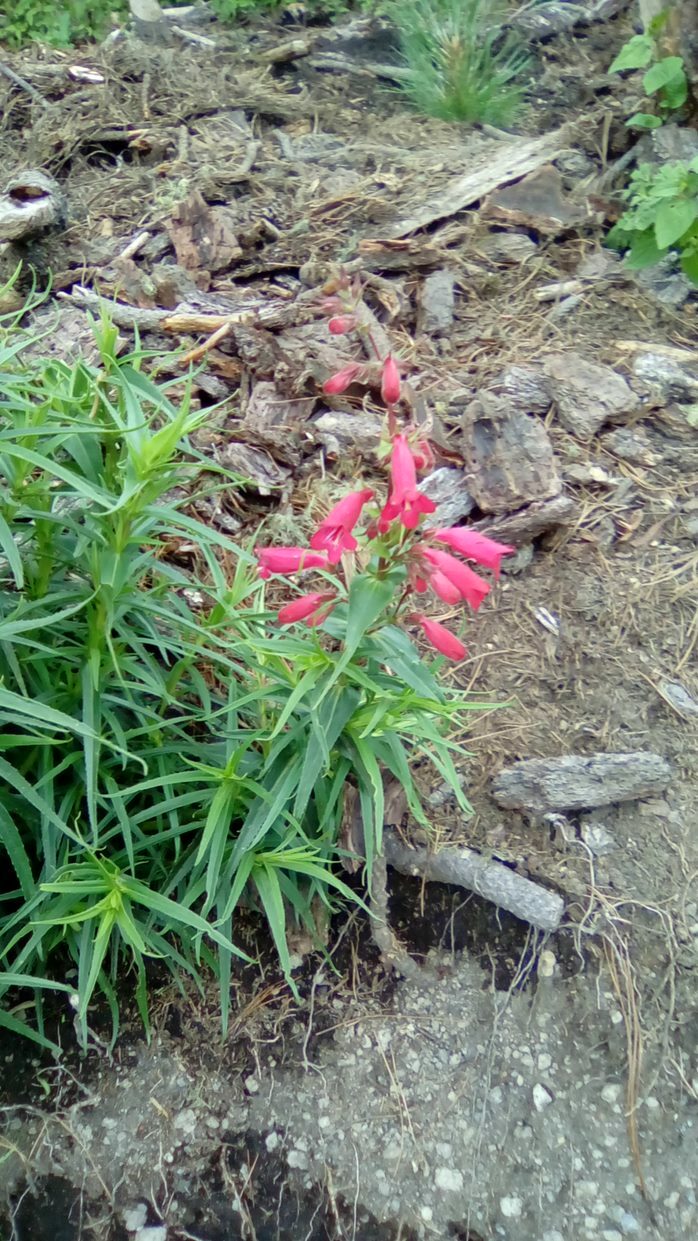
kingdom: Plantae
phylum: Tracheophyta
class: Magnoliopsida
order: Lamiales
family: Plantaginaceae
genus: Penstemon
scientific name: Penstemon roseus
